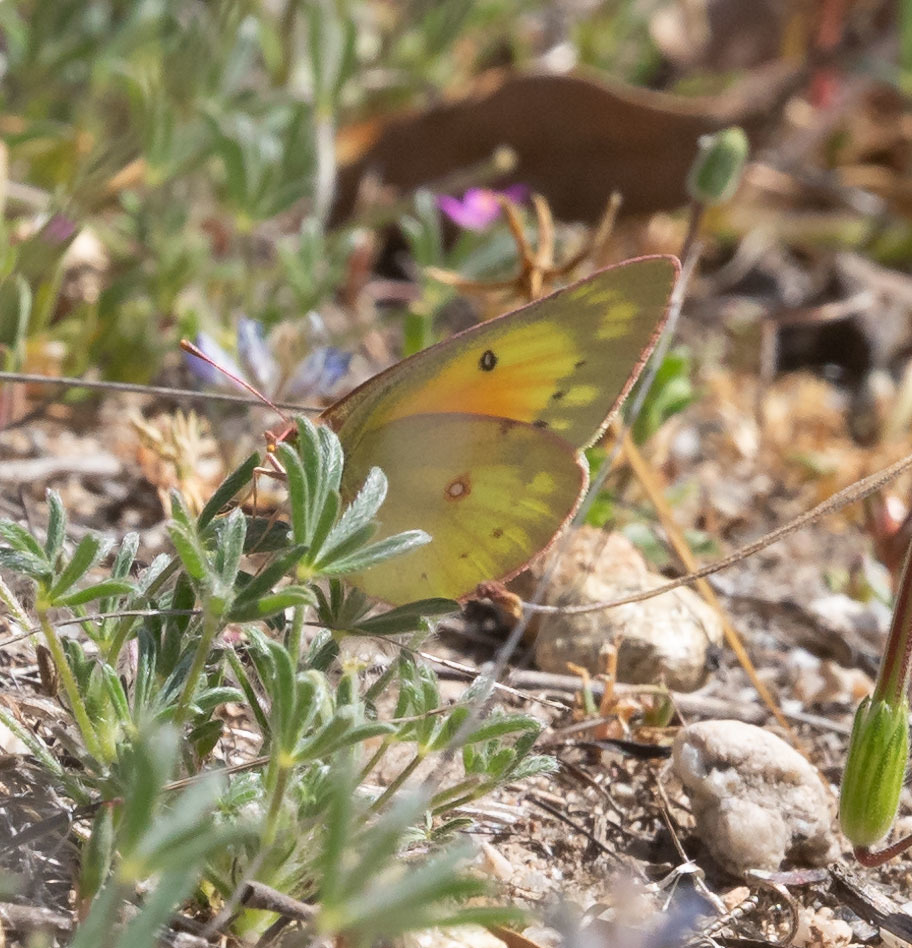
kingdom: Animalia
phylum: Arthropoda
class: Insecta
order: Lepidoptera
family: Pieridae
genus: Colias
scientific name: Colias eurytheme
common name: Alfalfa butterfly
